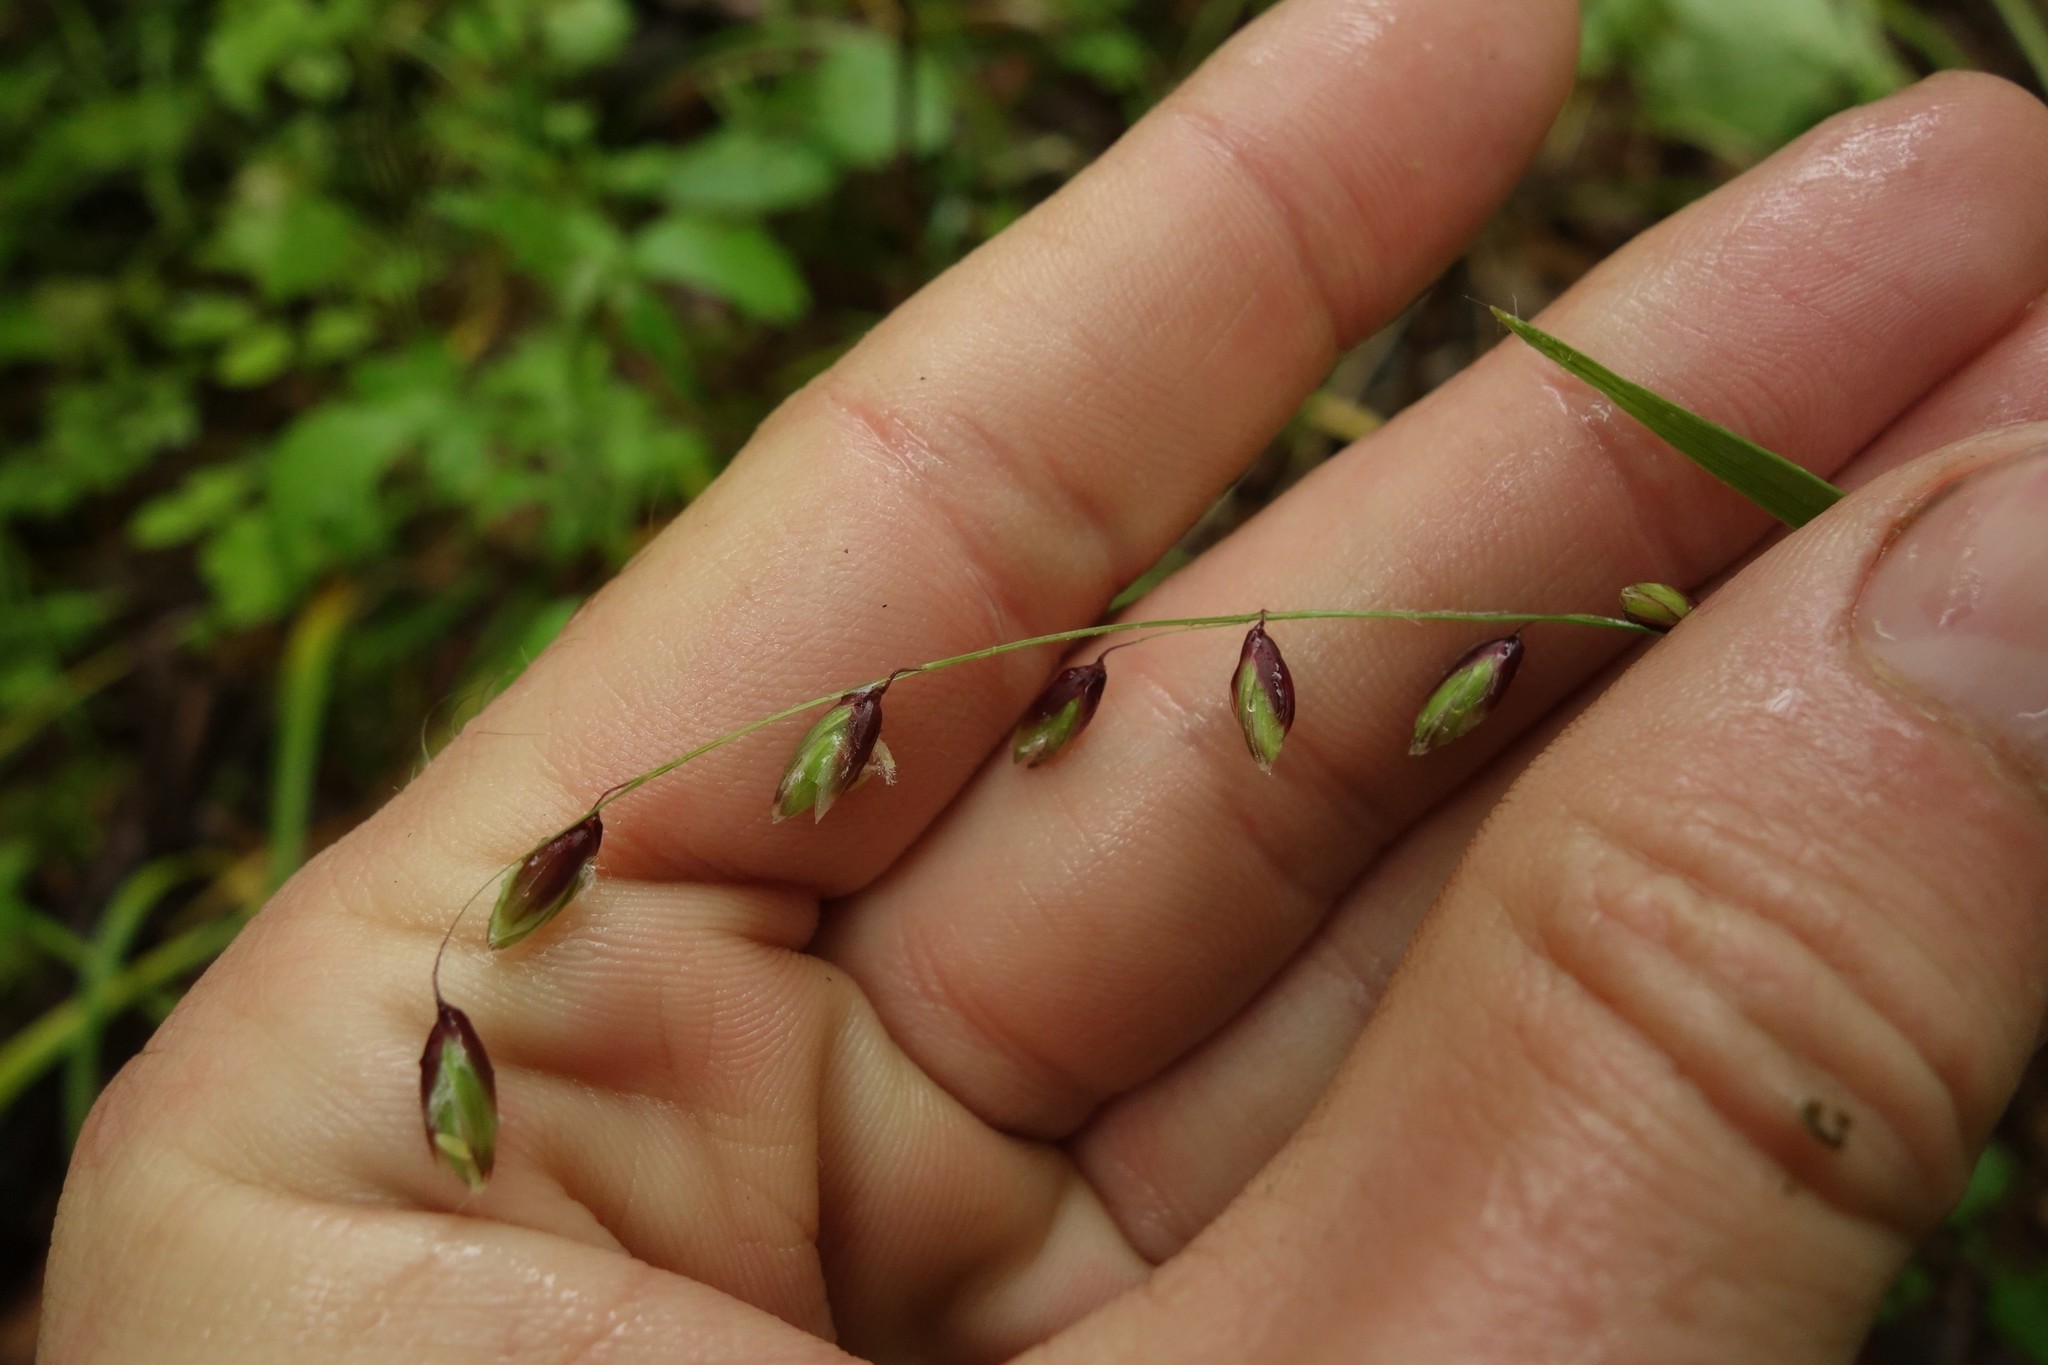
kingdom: Plantae
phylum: Tracheophyta
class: Liliopsida
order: Poales
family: Poaceae
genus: Melica
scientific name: Melica nutans
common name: Mountain melick
